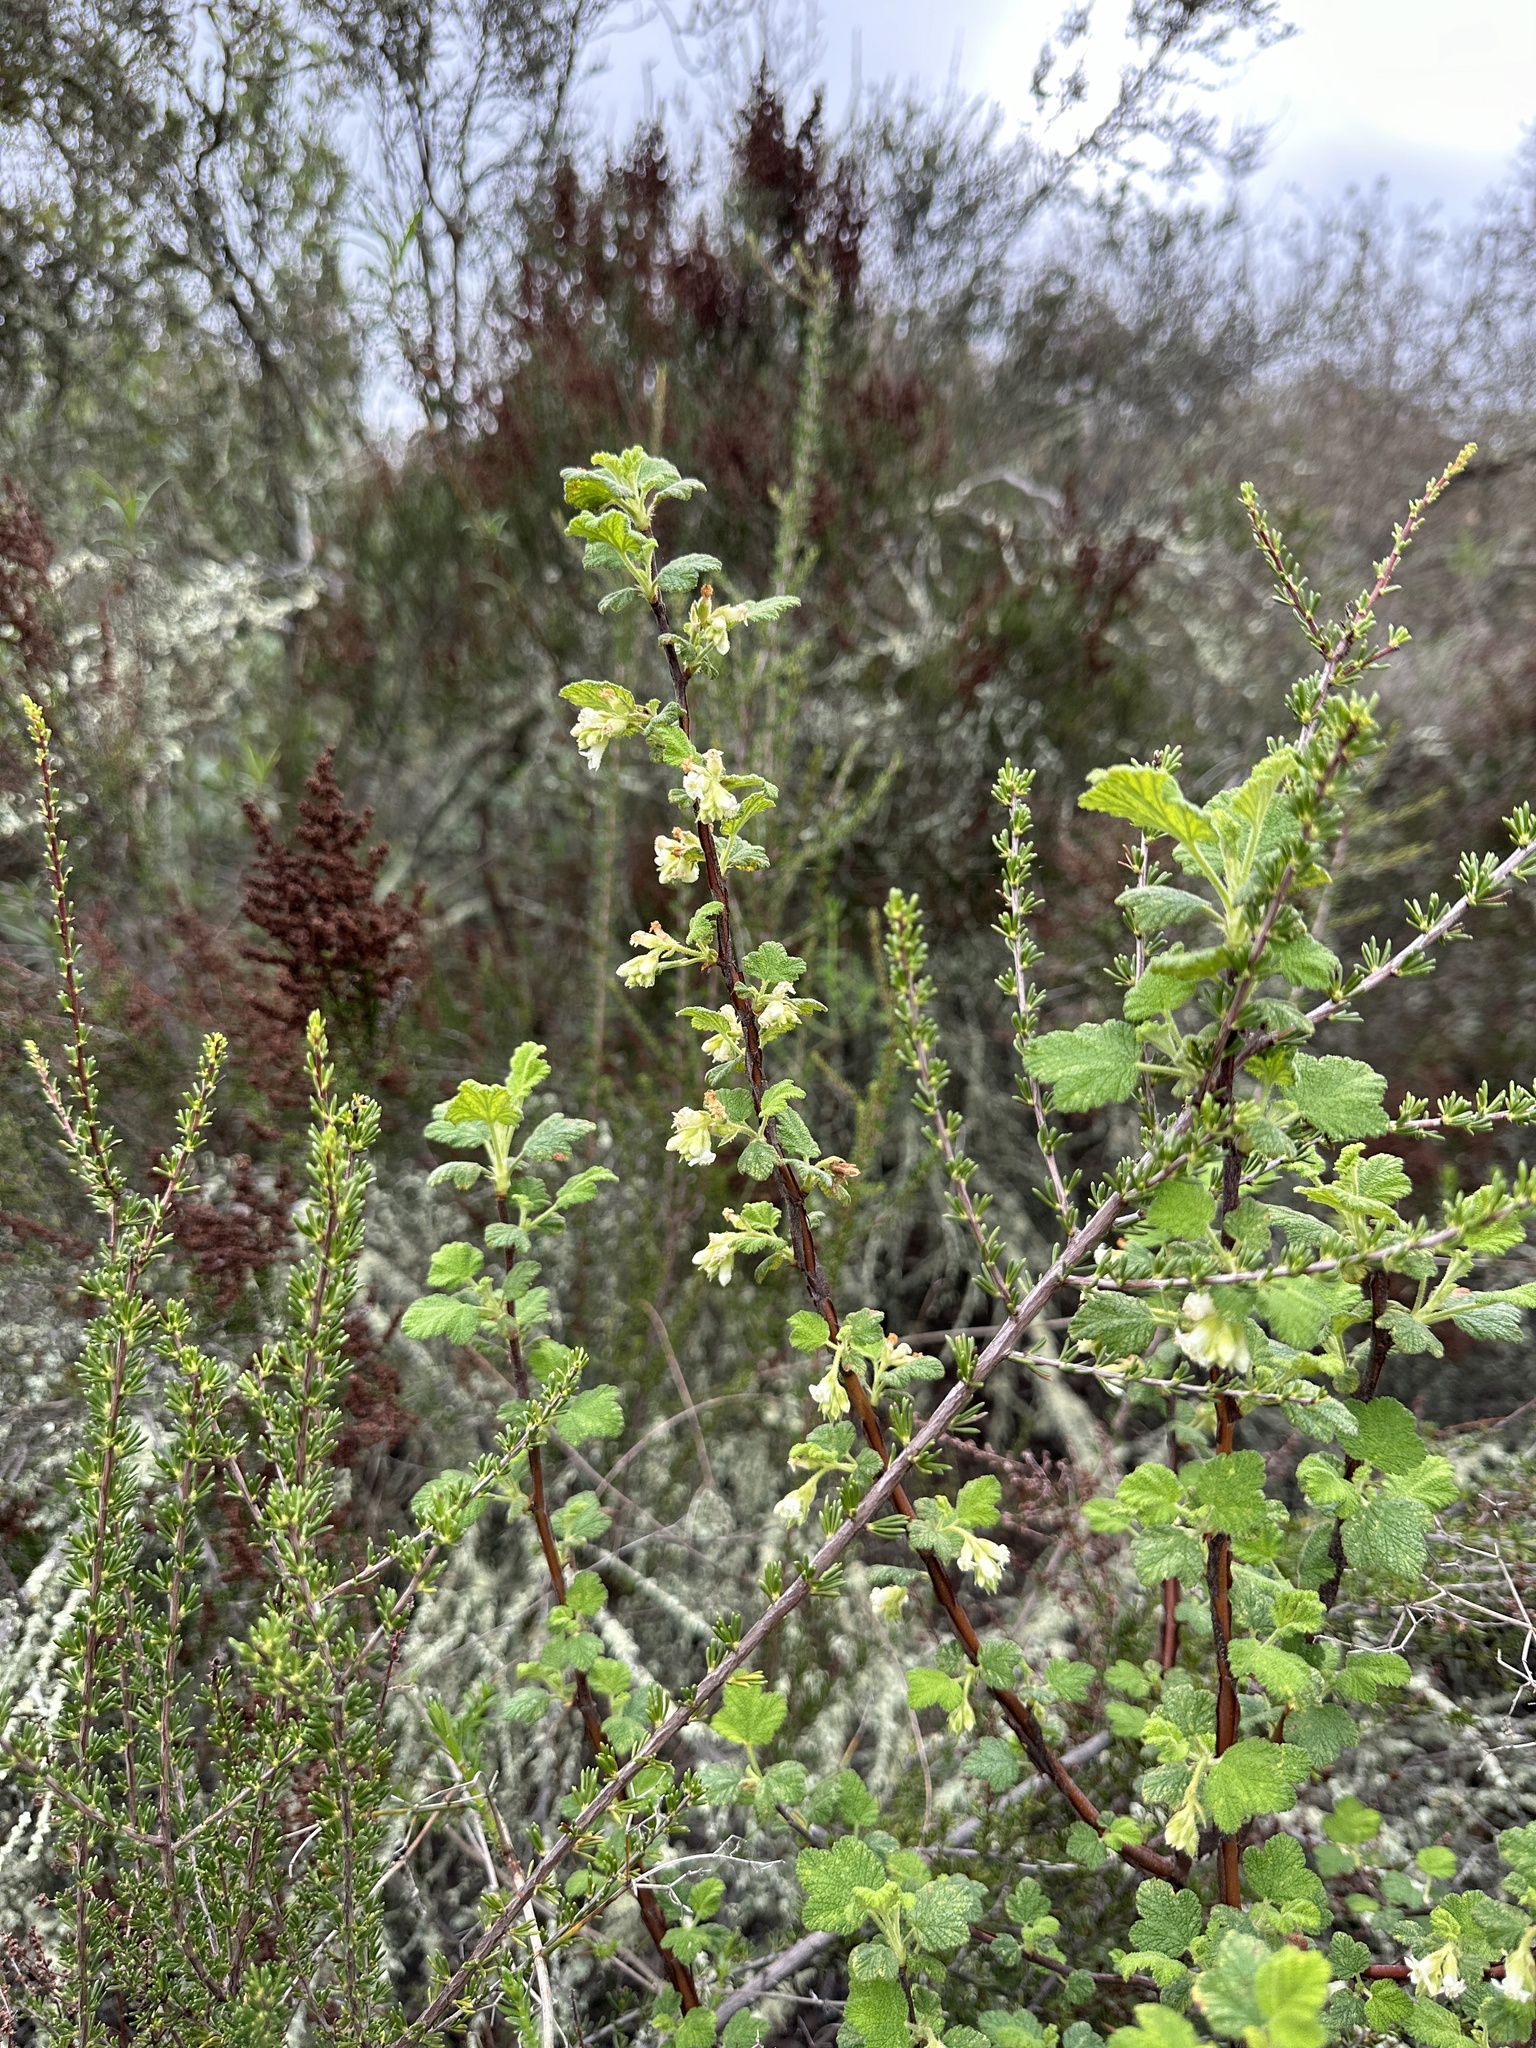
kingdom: Plantae
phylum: Tracheophyta
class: Magnoliopsida
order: Saxifragales
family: Grossulariaceae
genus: Ribes
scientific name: Ribes indecorum
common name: White-flower currant
